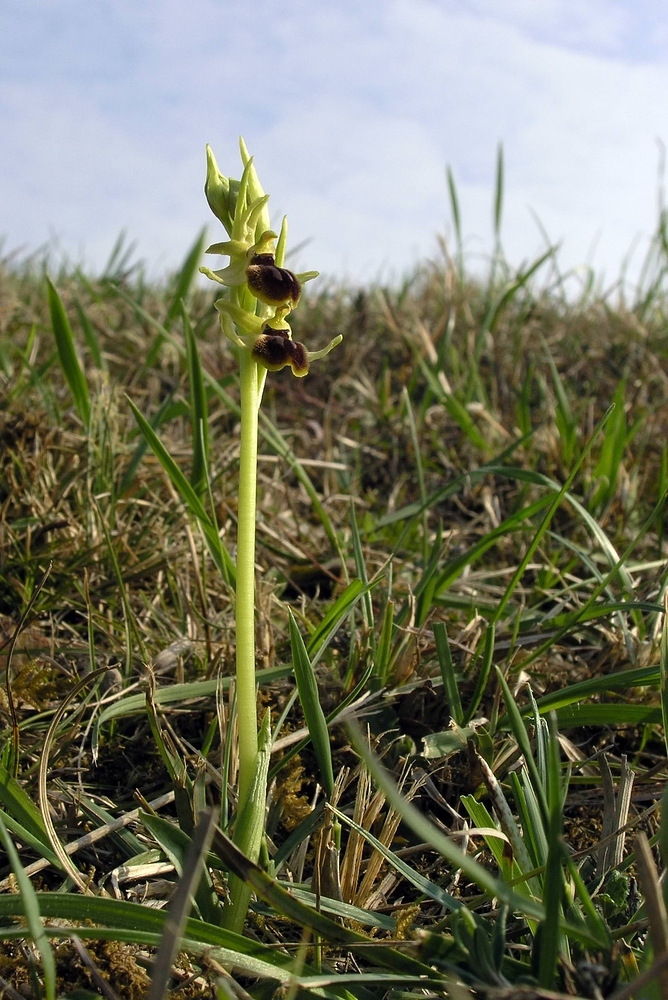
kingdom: Plantae
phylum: Tracheophyta
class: Liliopsida
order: Asparagales
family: Orchidaceae
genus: Ophrys
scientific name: Ophrys araneola
